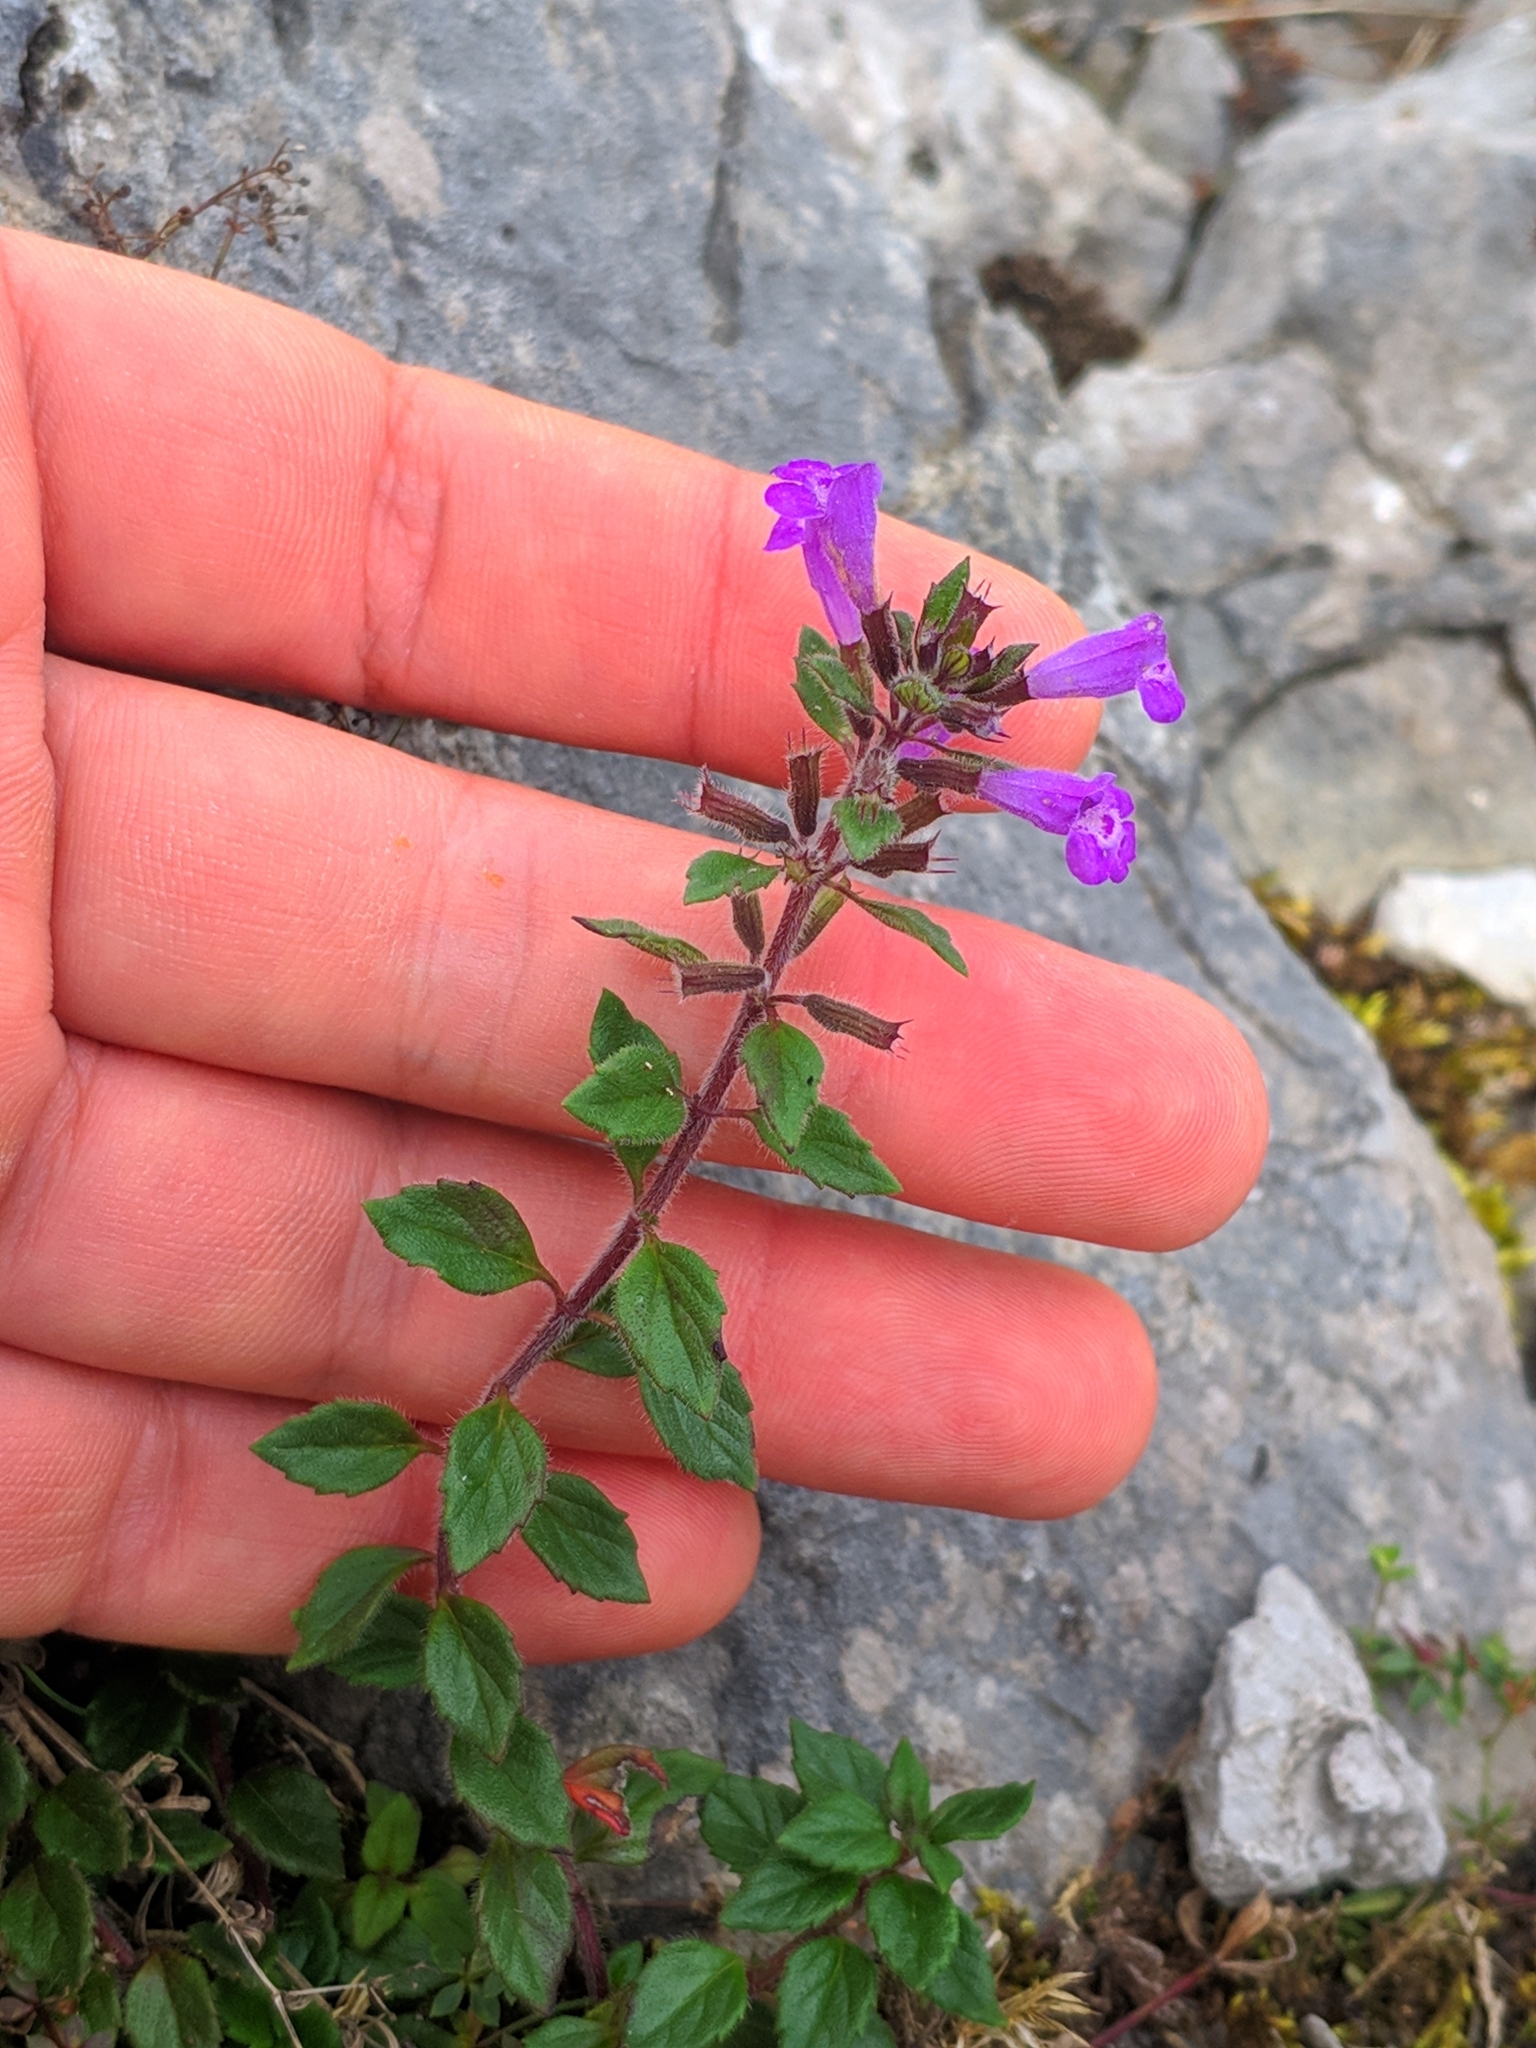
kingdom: Plantae
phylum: Tracheophyta
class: Magnoliopsida
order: Lamiales
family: Lamiaceae
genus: Clinopodium
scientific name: Clinopodium alpinum
